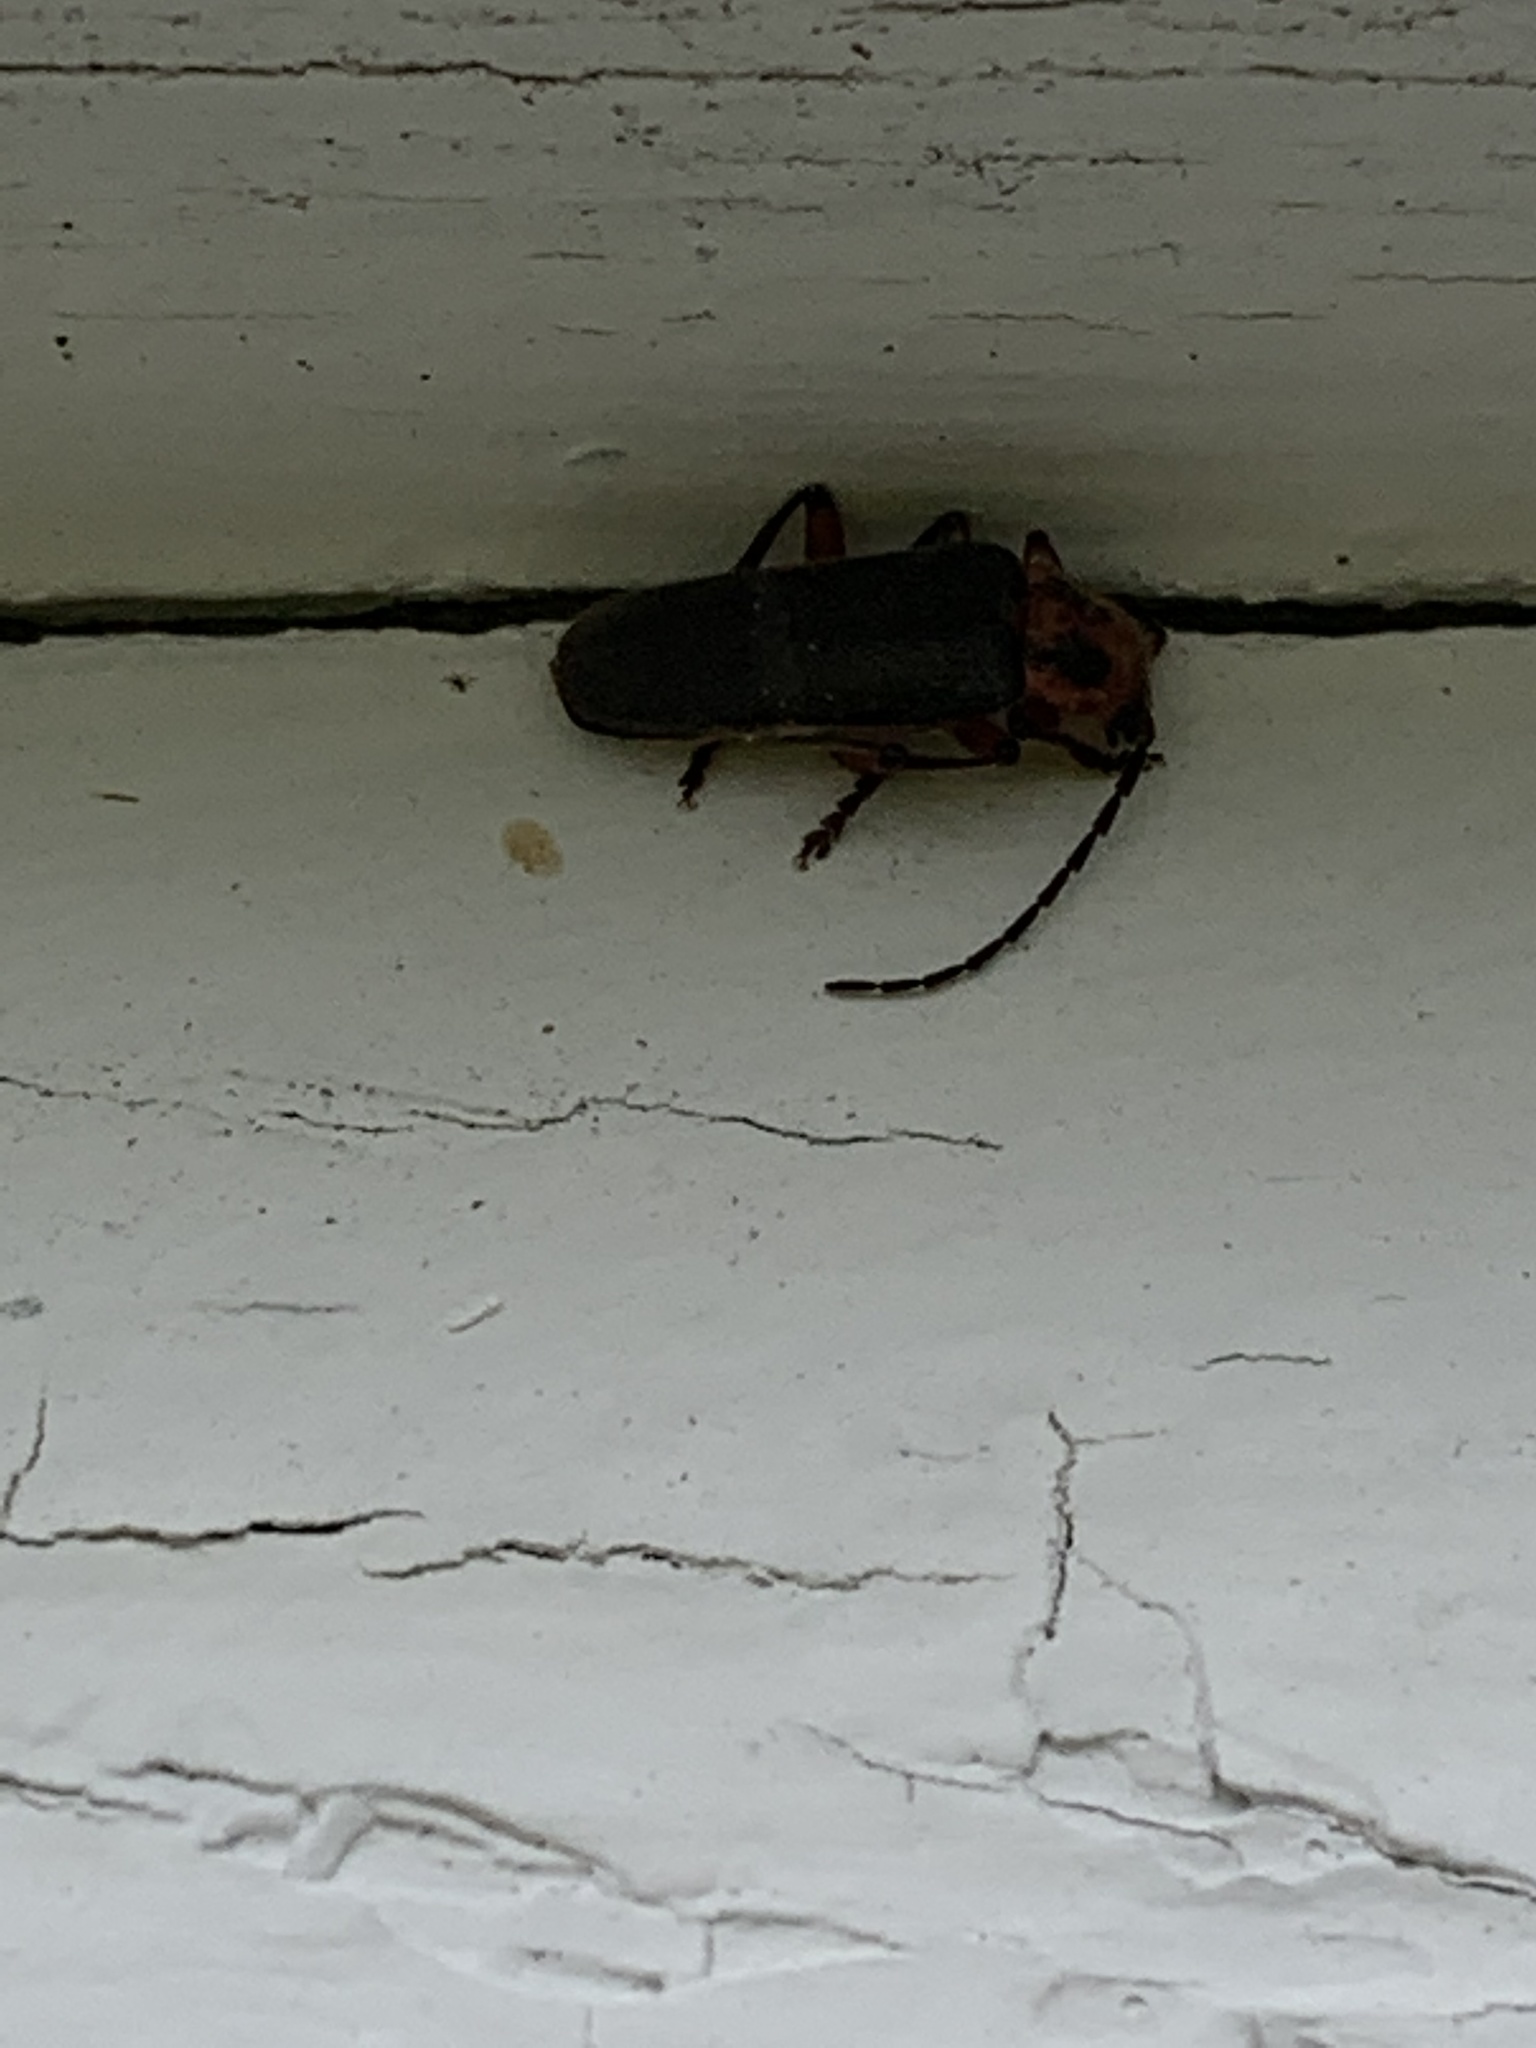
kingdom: Animalia
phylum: Arthropoda
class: Insecta
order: Coleoptera
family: Cantharidae
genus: Atalantycha
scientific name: Atalantycha bilineata
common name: Two-lined leatherwing
